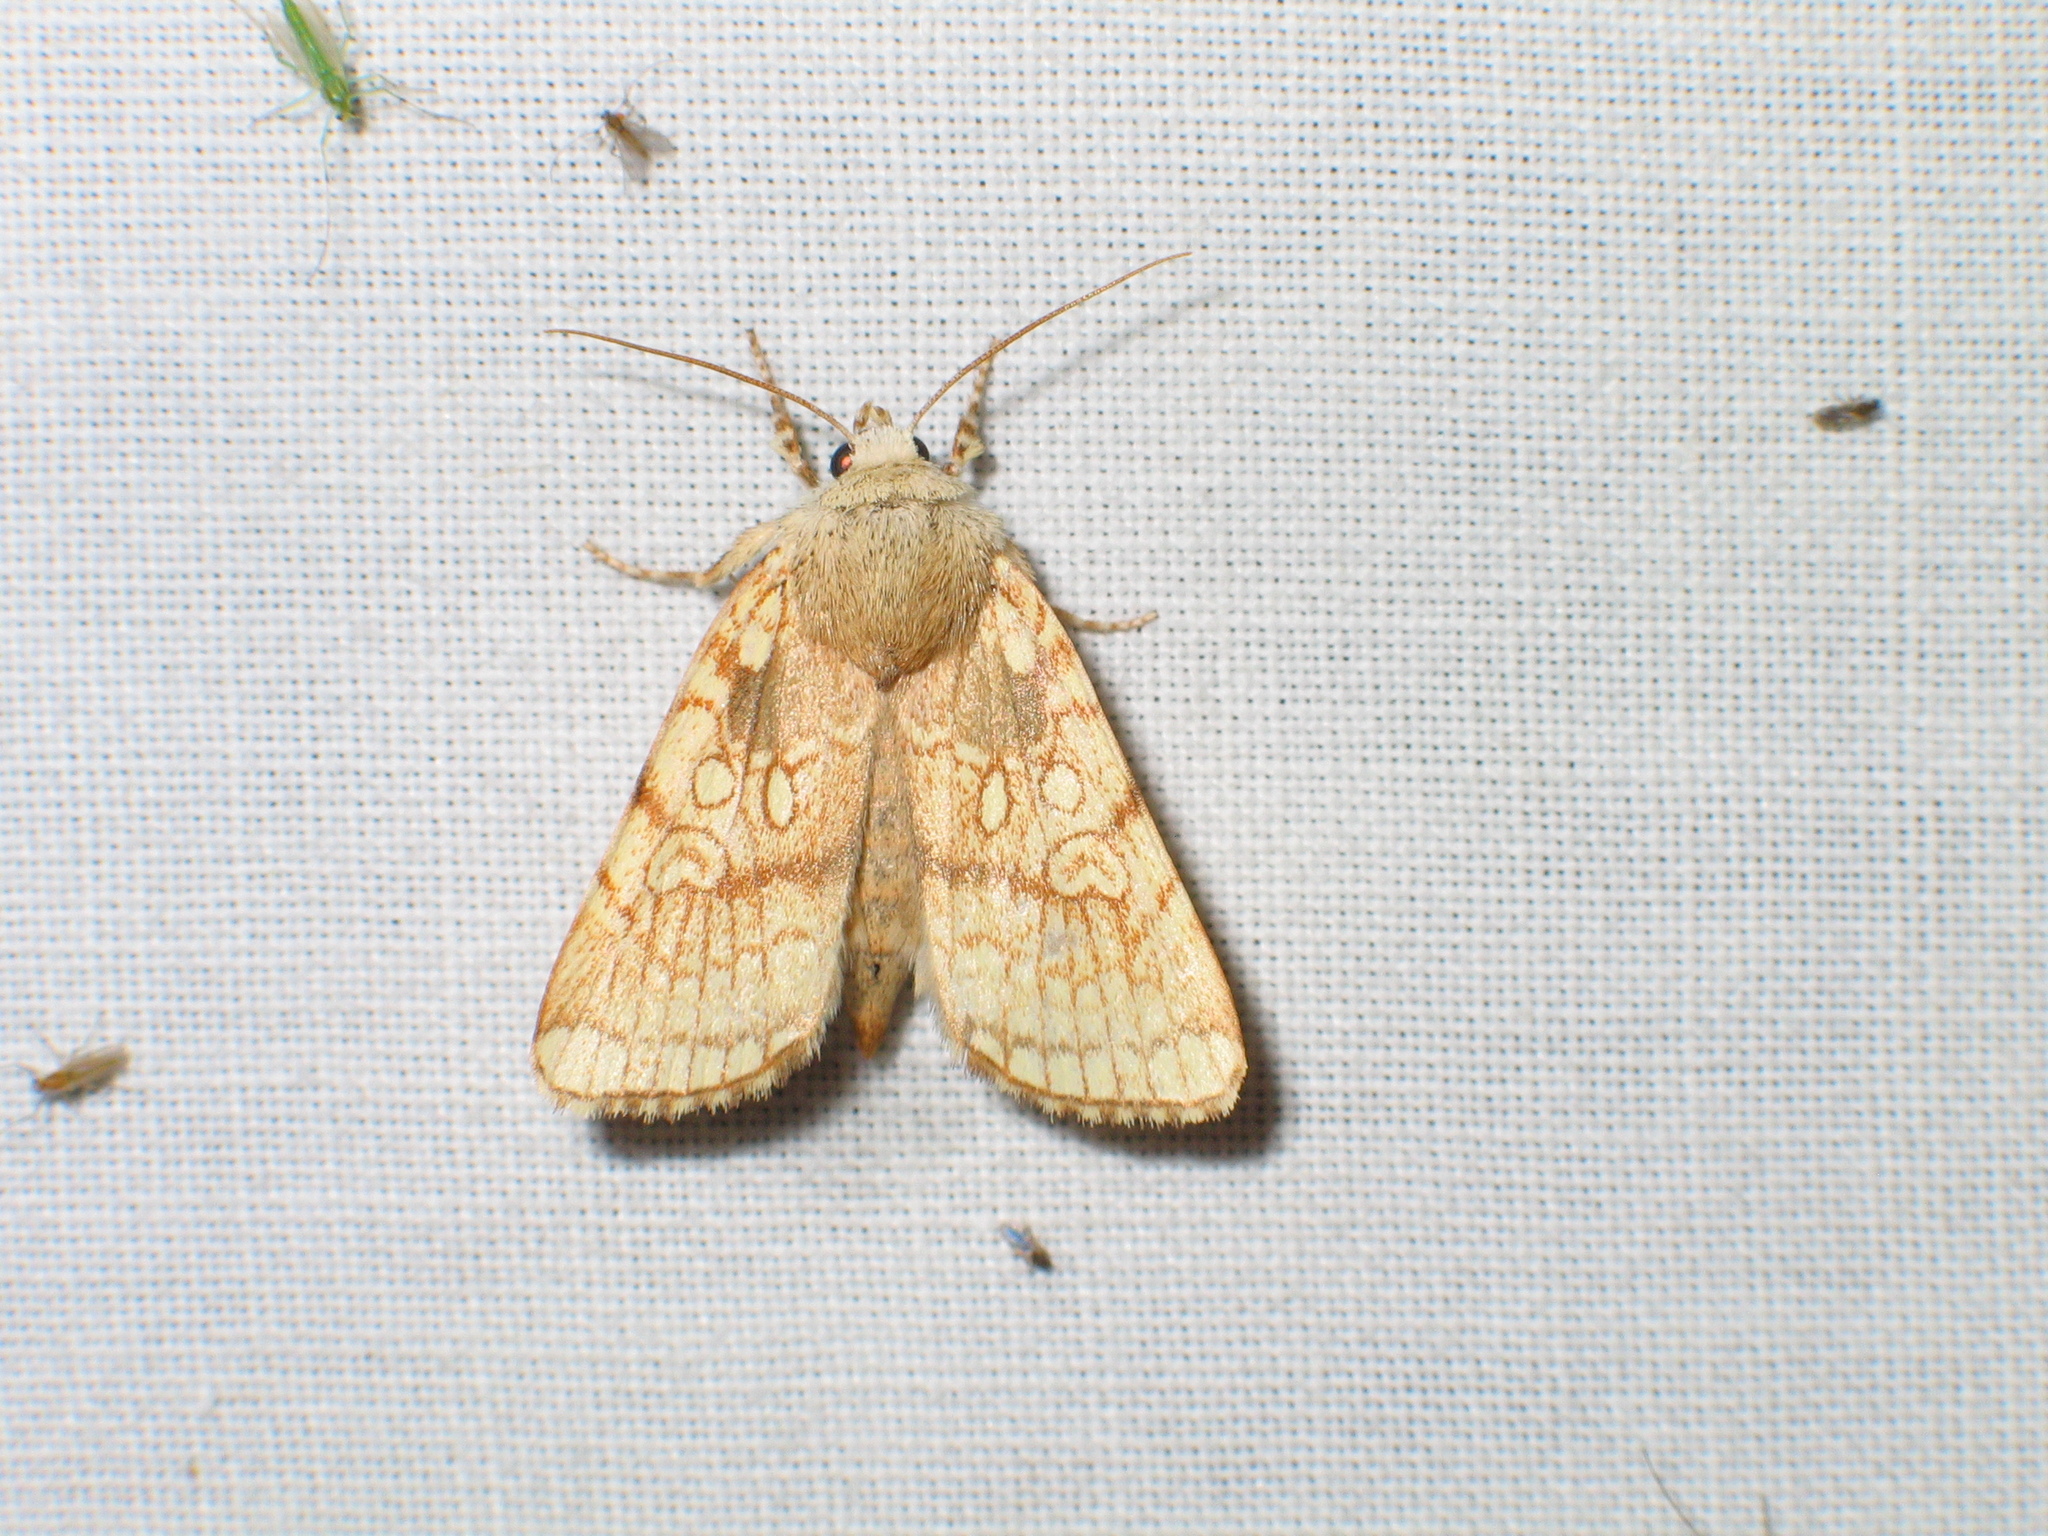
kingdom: Animalia
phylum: Arthropoda
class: Insecta
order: Lepidoptera
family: Noctuidae
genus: Dicycla
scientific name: Dicycla oo
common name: Heart moth
